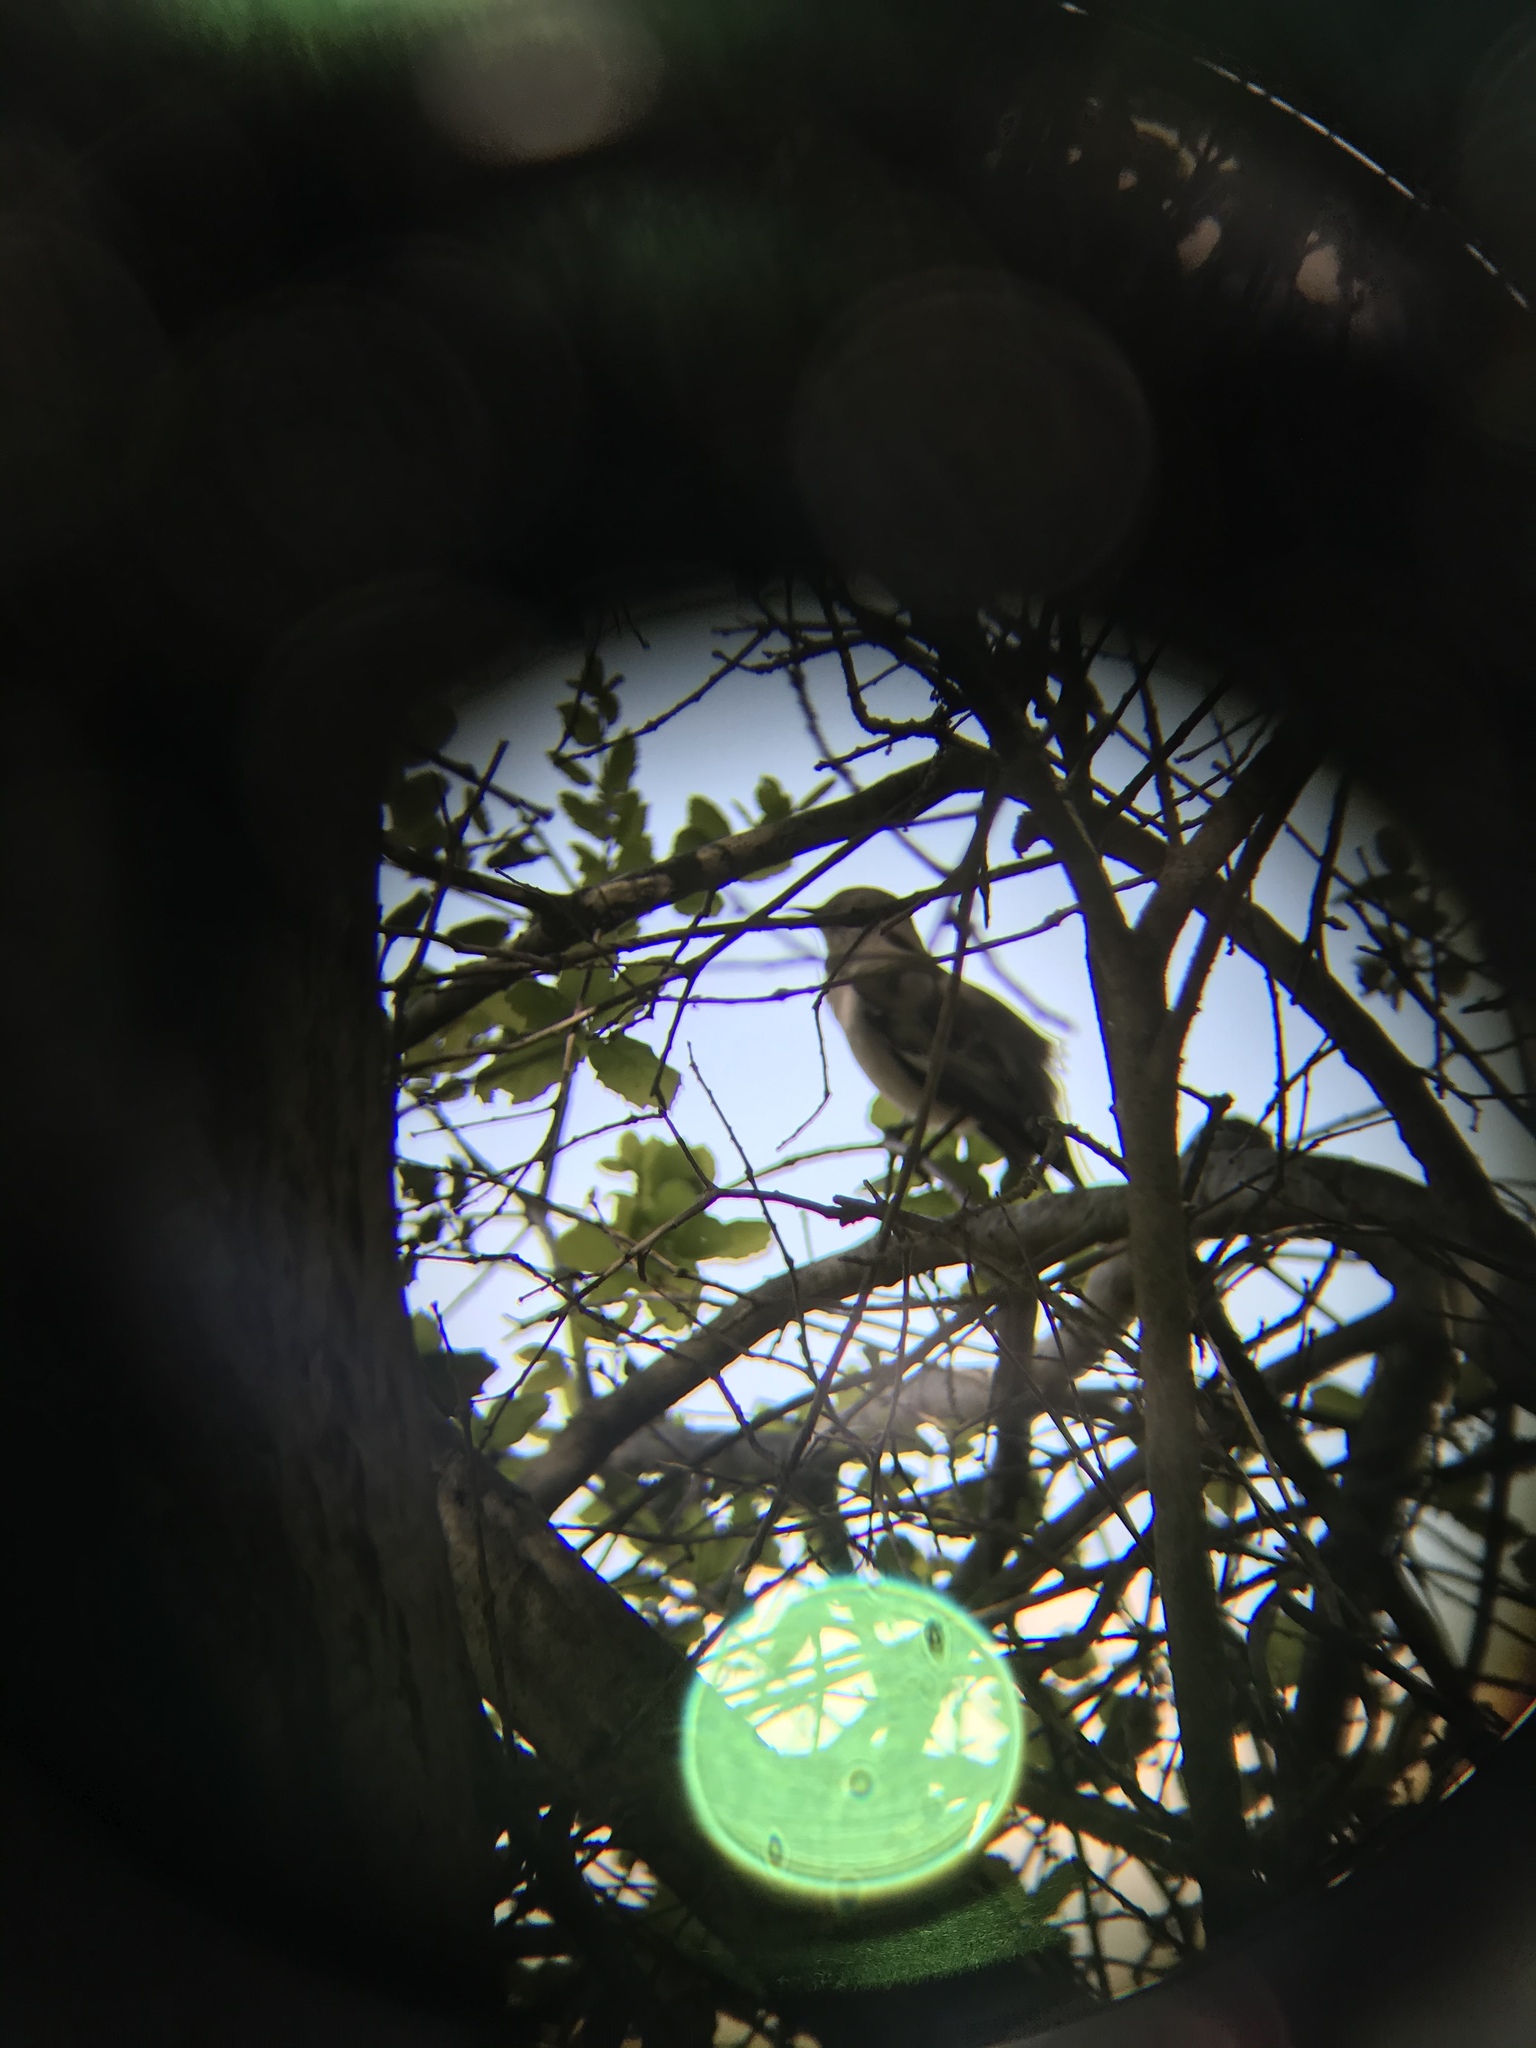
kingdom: Animalia
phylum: Chordata
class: Aves
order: Passeriformes
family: Mimidae
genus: Mimus
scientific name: Mimus polyglottos
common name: Northern mockingbird
